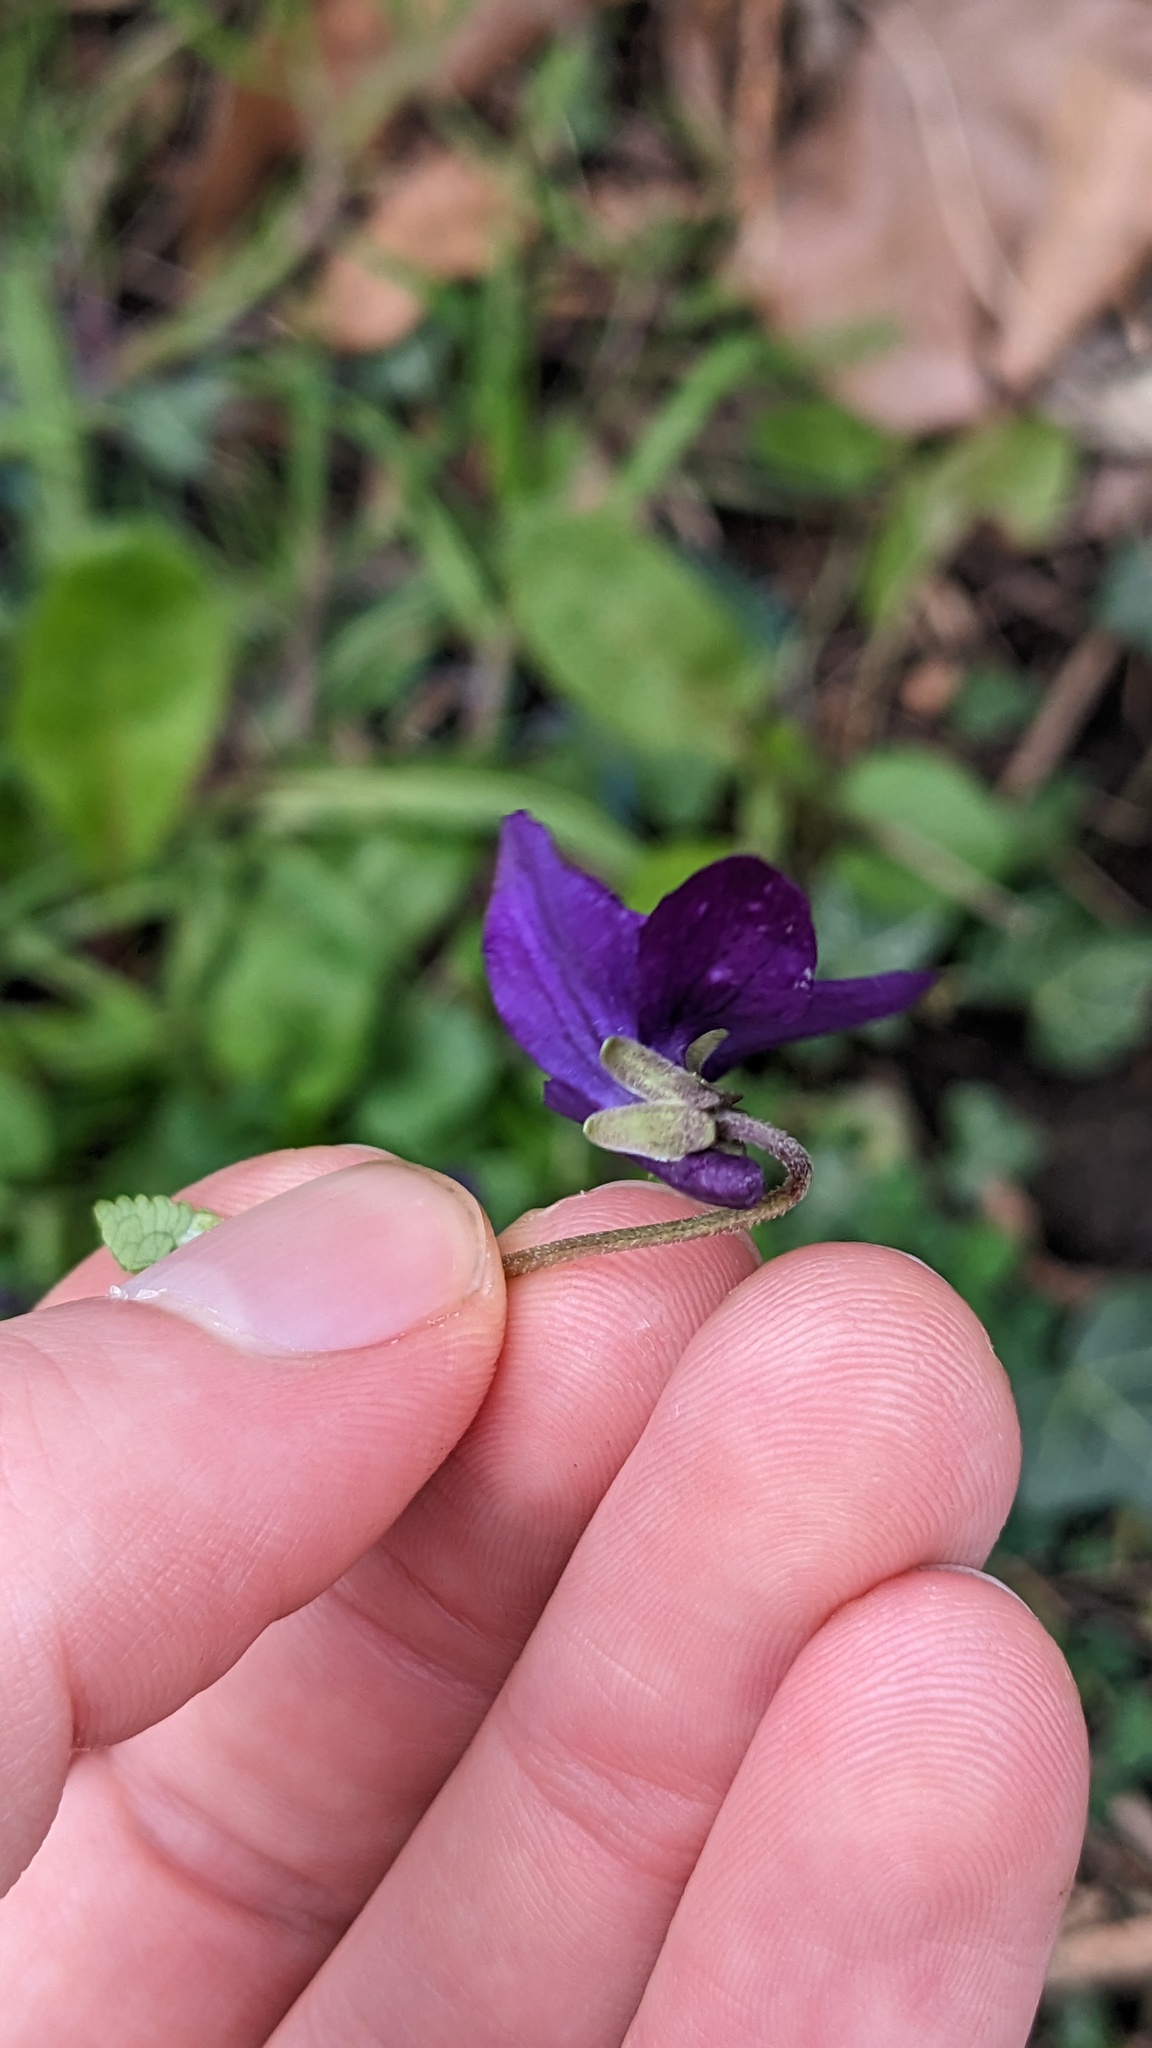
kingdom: Plantae
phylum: Tracheophyta
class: Magnoliopsida
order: Malpighiales
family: Violaceae
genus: Viola
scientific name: Viola odorata
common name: Sweet violet
